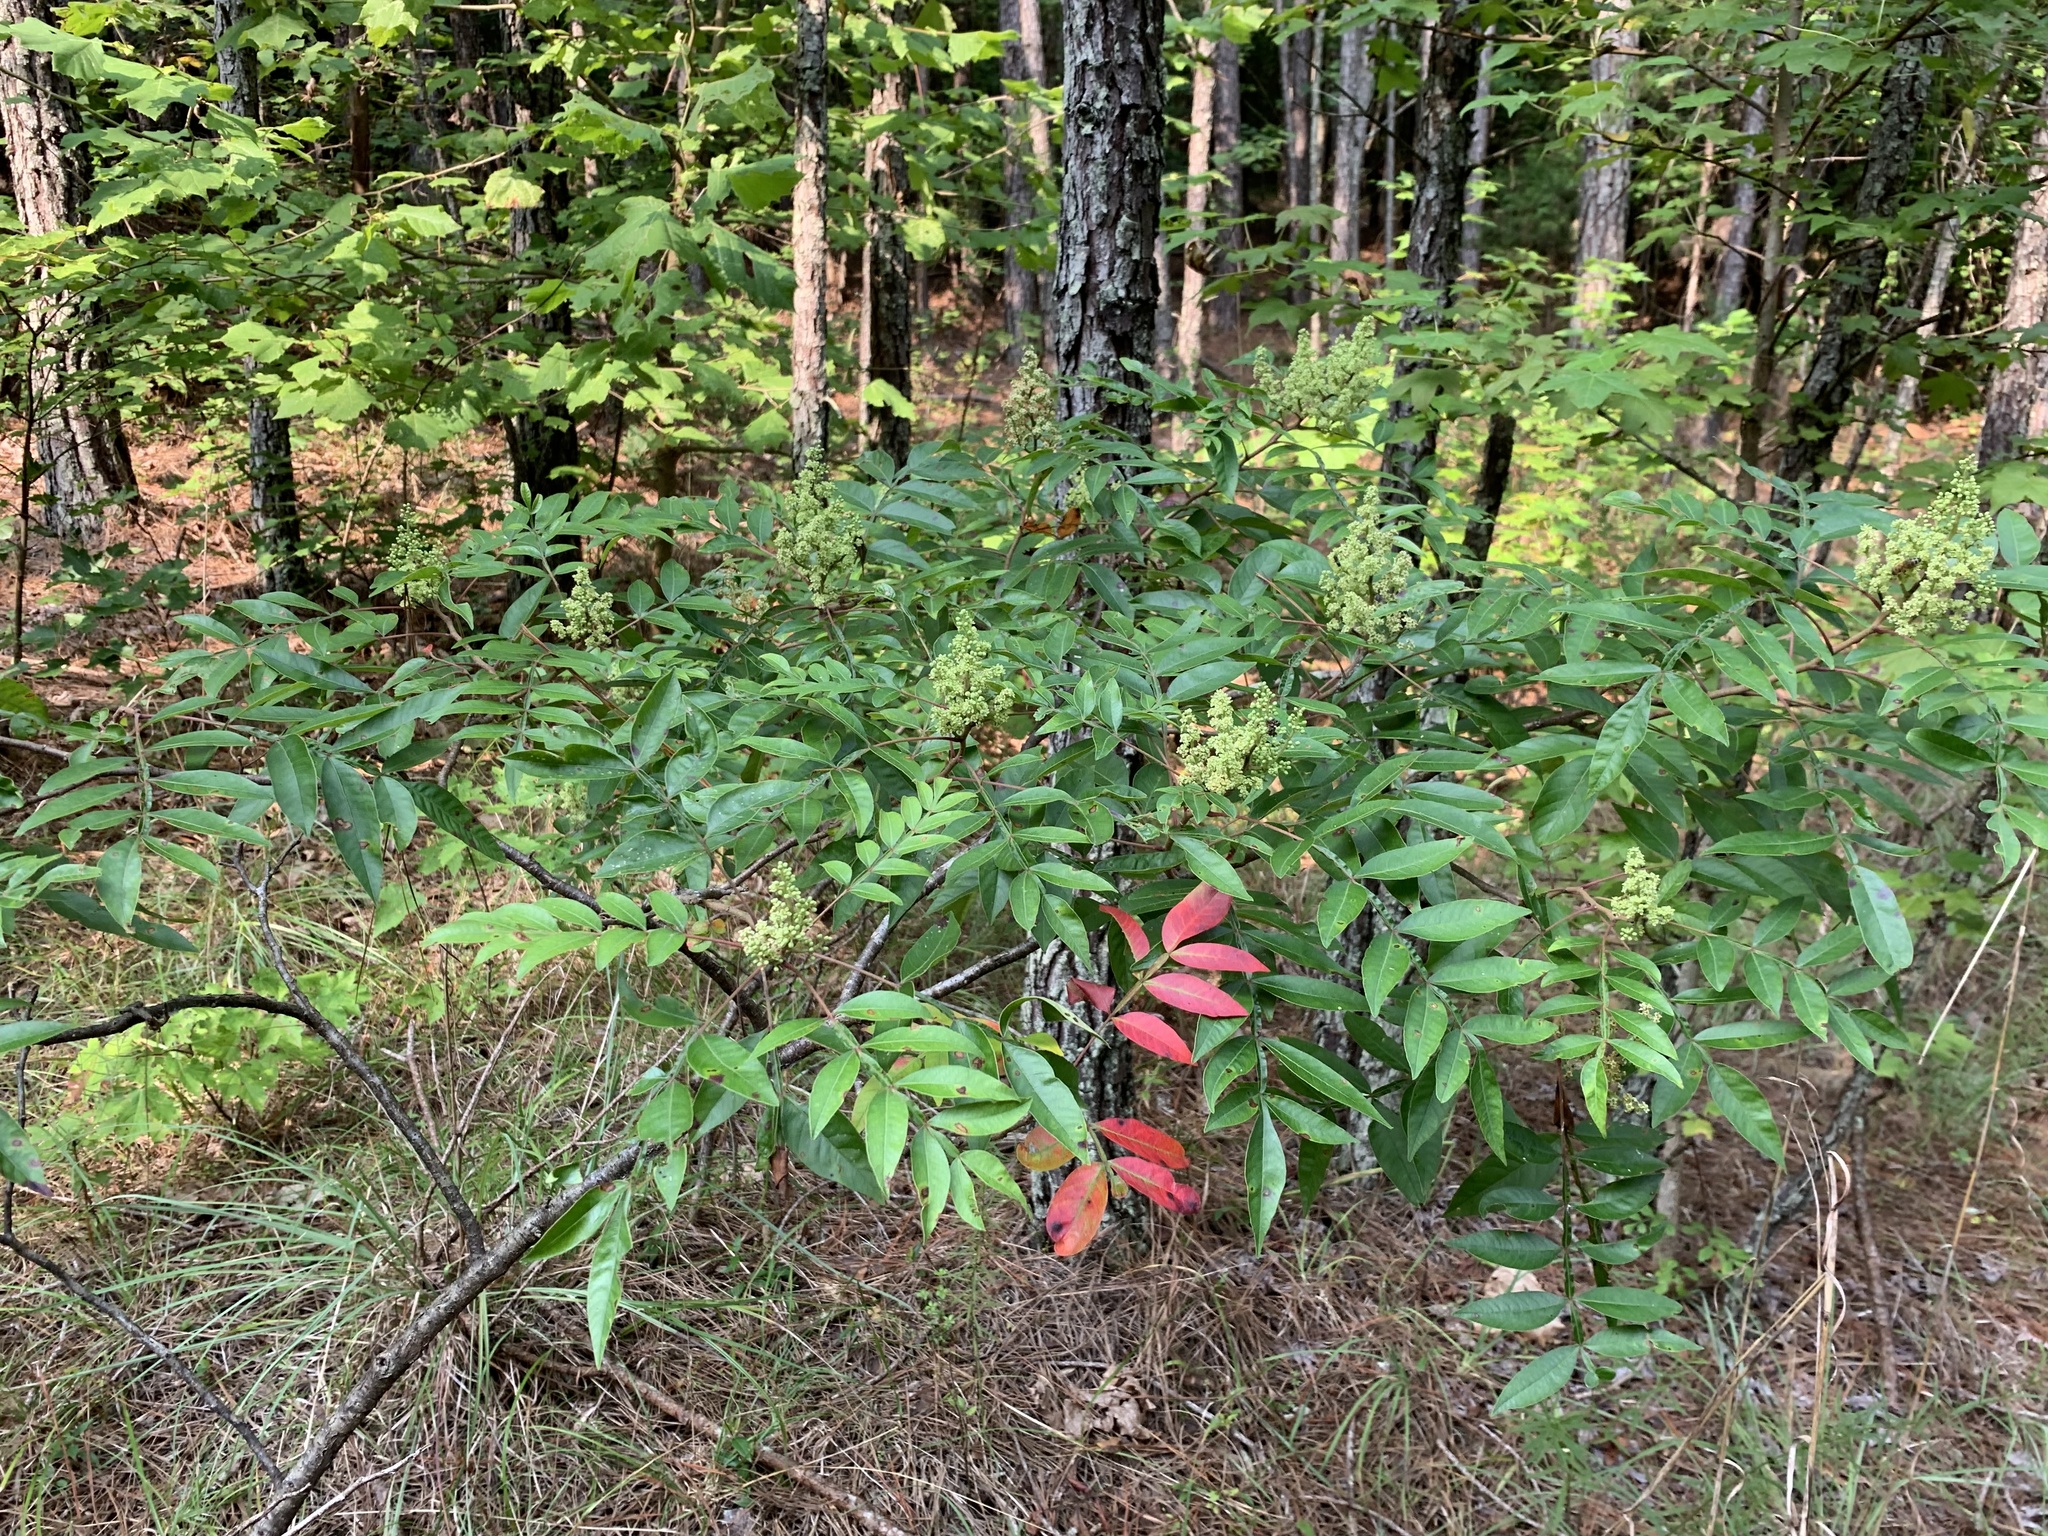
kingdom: Plantae
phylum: Tracheophyta
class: Magnoliopsida
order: Sapindales
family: Anacardiaceae
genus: Rhus
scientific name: Rhus copallina
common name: Shining sumac
